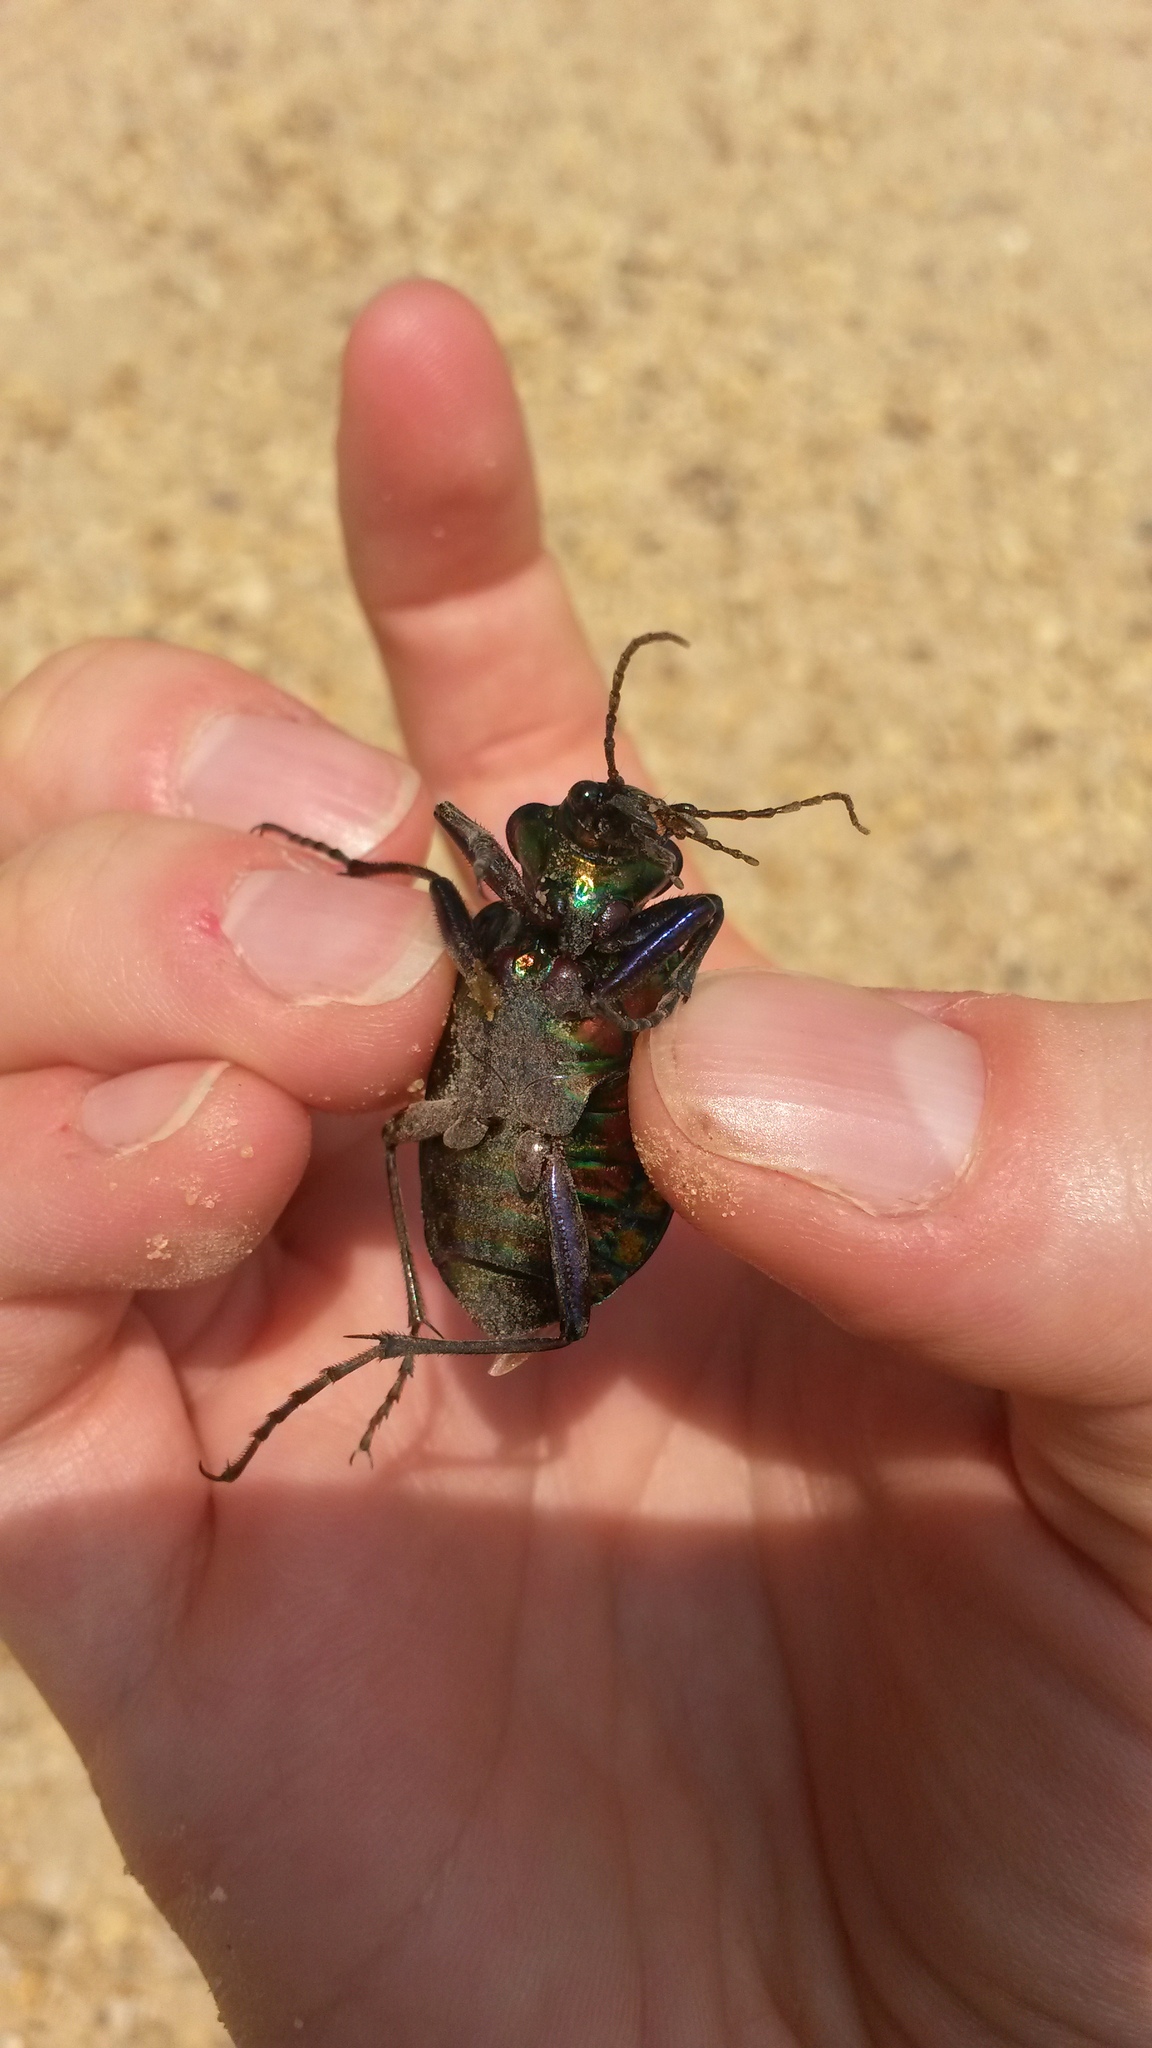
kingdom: Animalia
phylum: Arthropoda
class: Insecta
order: Coleoptera
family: Carabidae
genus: Calosoma
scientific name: Calosoma scrutator
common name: Fiery searcher beetle
